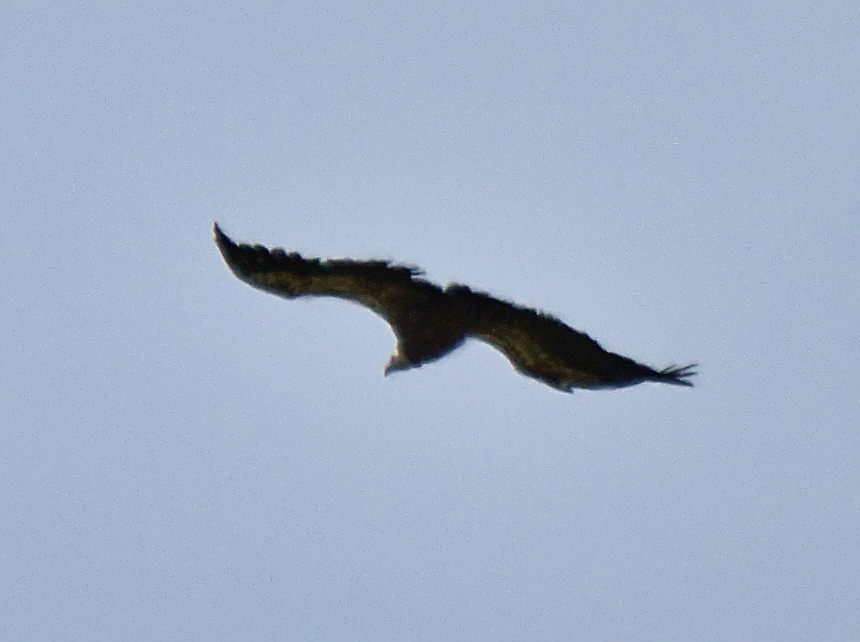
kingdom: Animalia
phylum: Chordata
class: Aves
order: Accipitriformes
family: Accipitridae
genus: Gyps
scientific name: Gyps fulvus
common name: Griffon vulture
